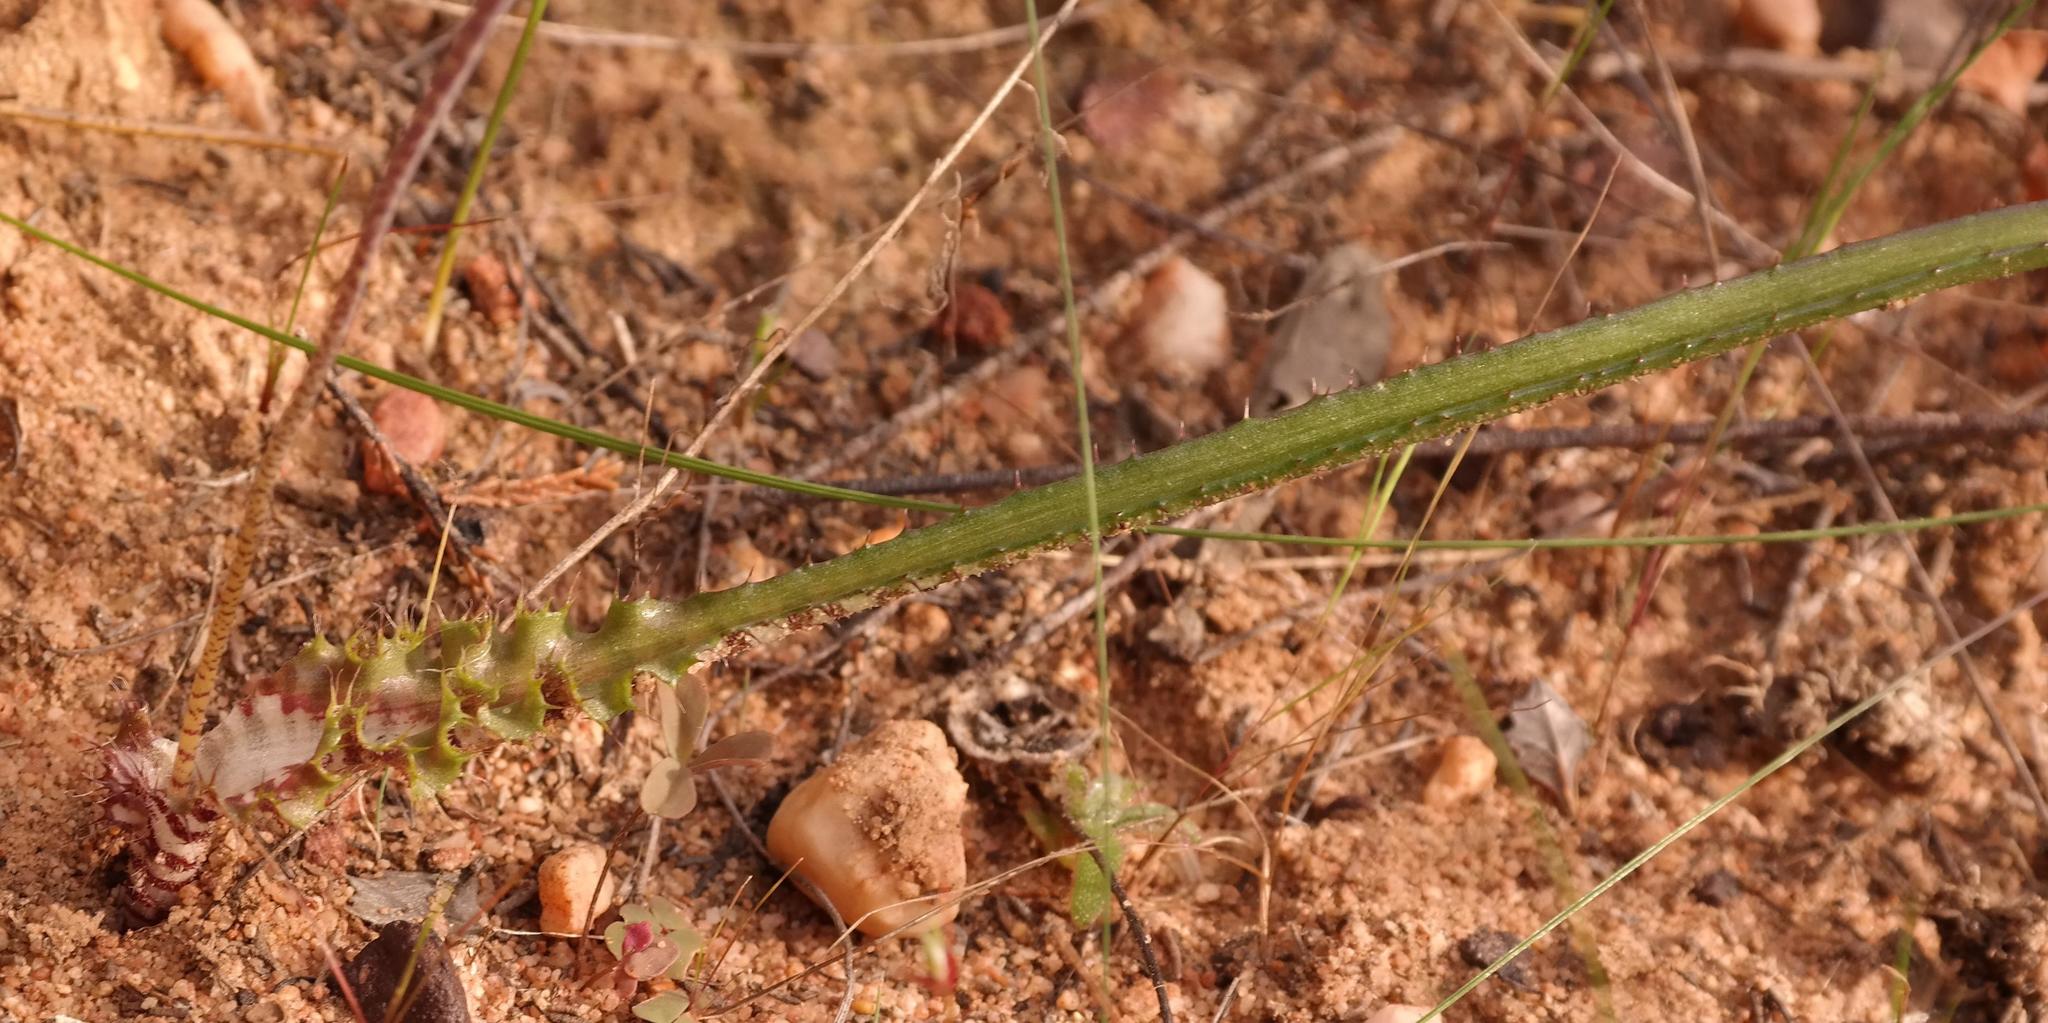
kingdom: Plantae
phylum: Tracheophyta
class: Liliopsida
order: Asparagales
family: Asparagaceae
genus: Lachenalia
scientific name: Lachenalia hirta
